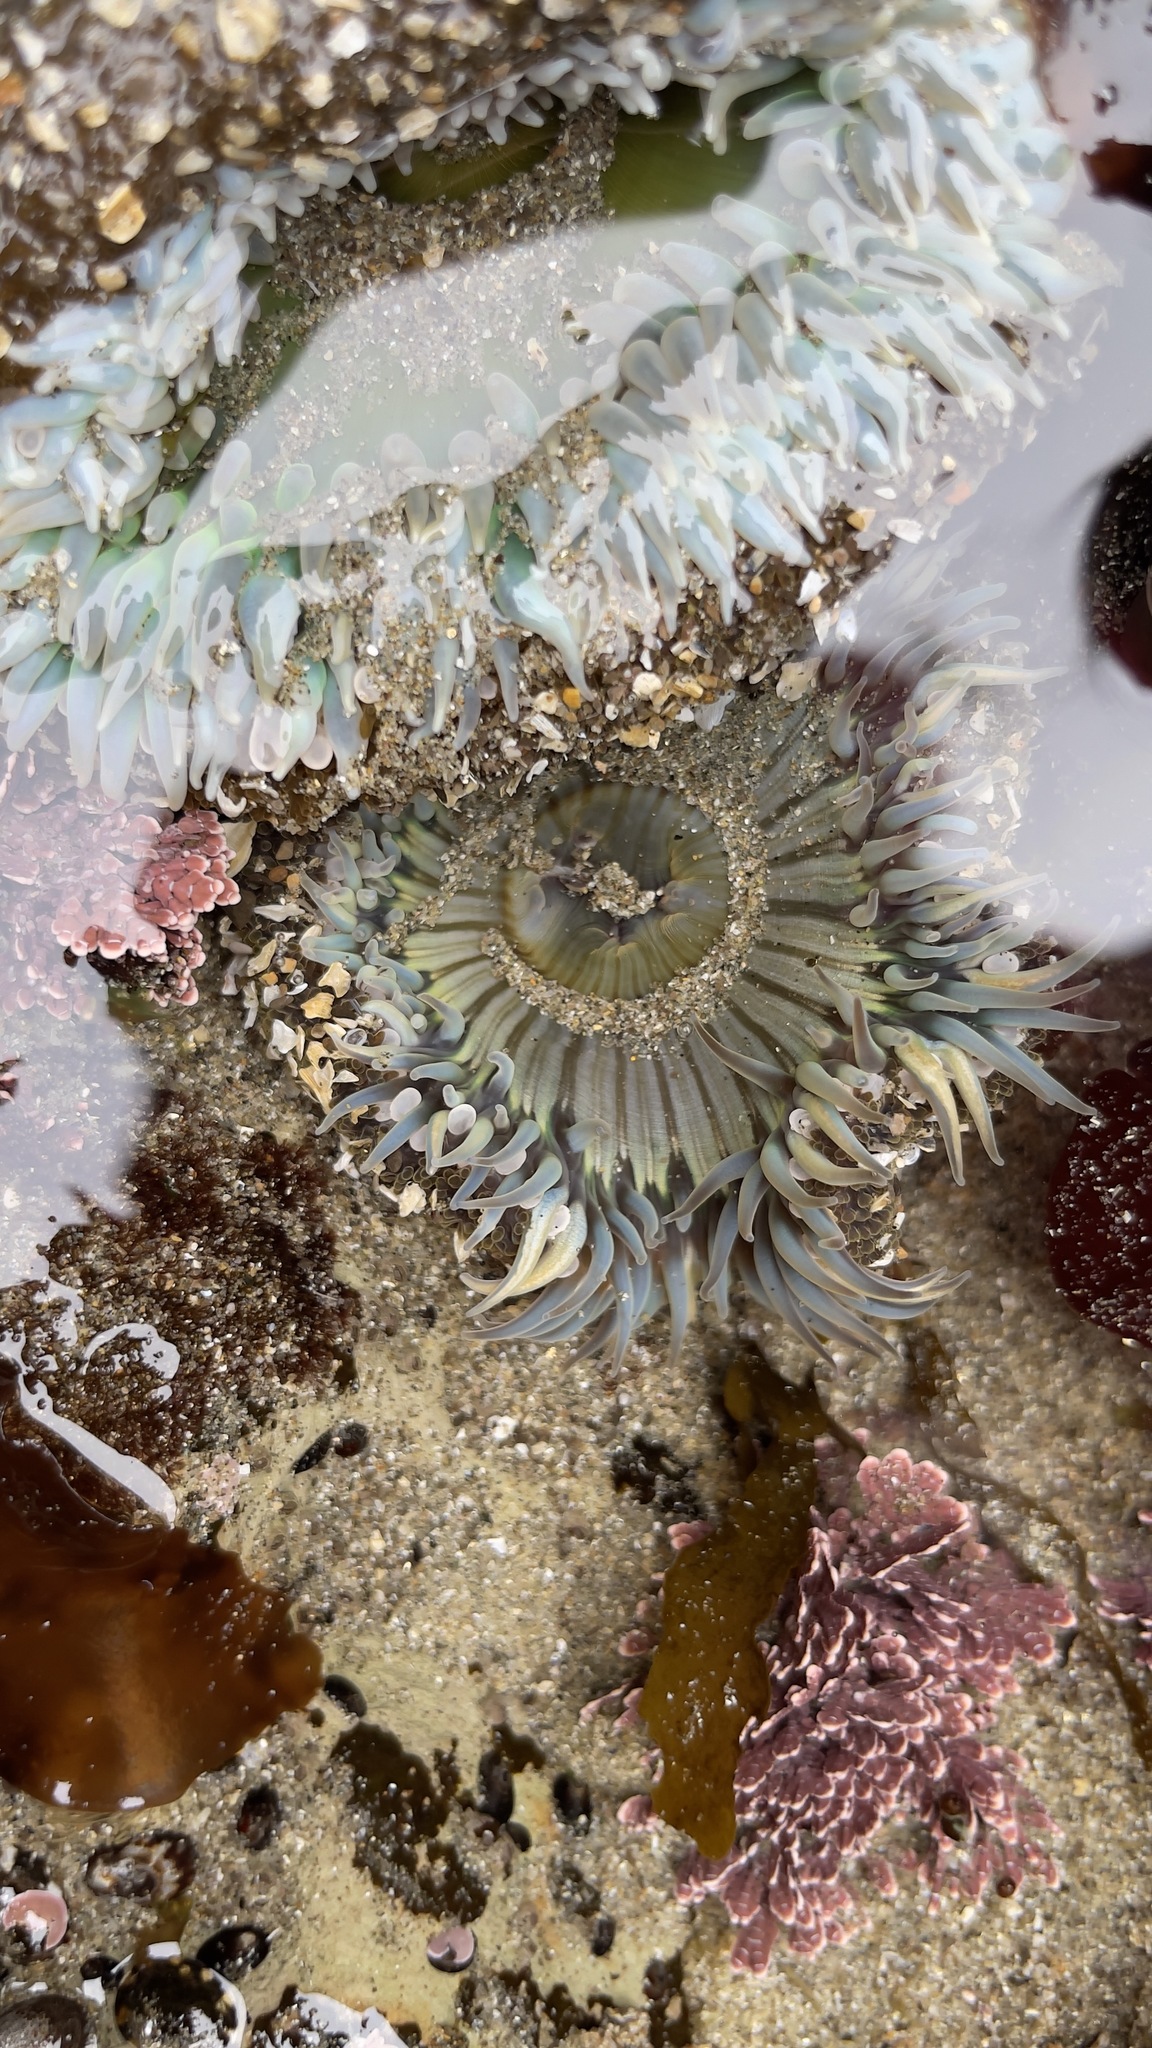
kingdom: Animalia
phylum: Cnidaria
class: Anthozoa
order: Actiniaria
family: Actiniidae
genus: Anthopleura
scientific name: Anthopleura sola
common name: Sun anemone
